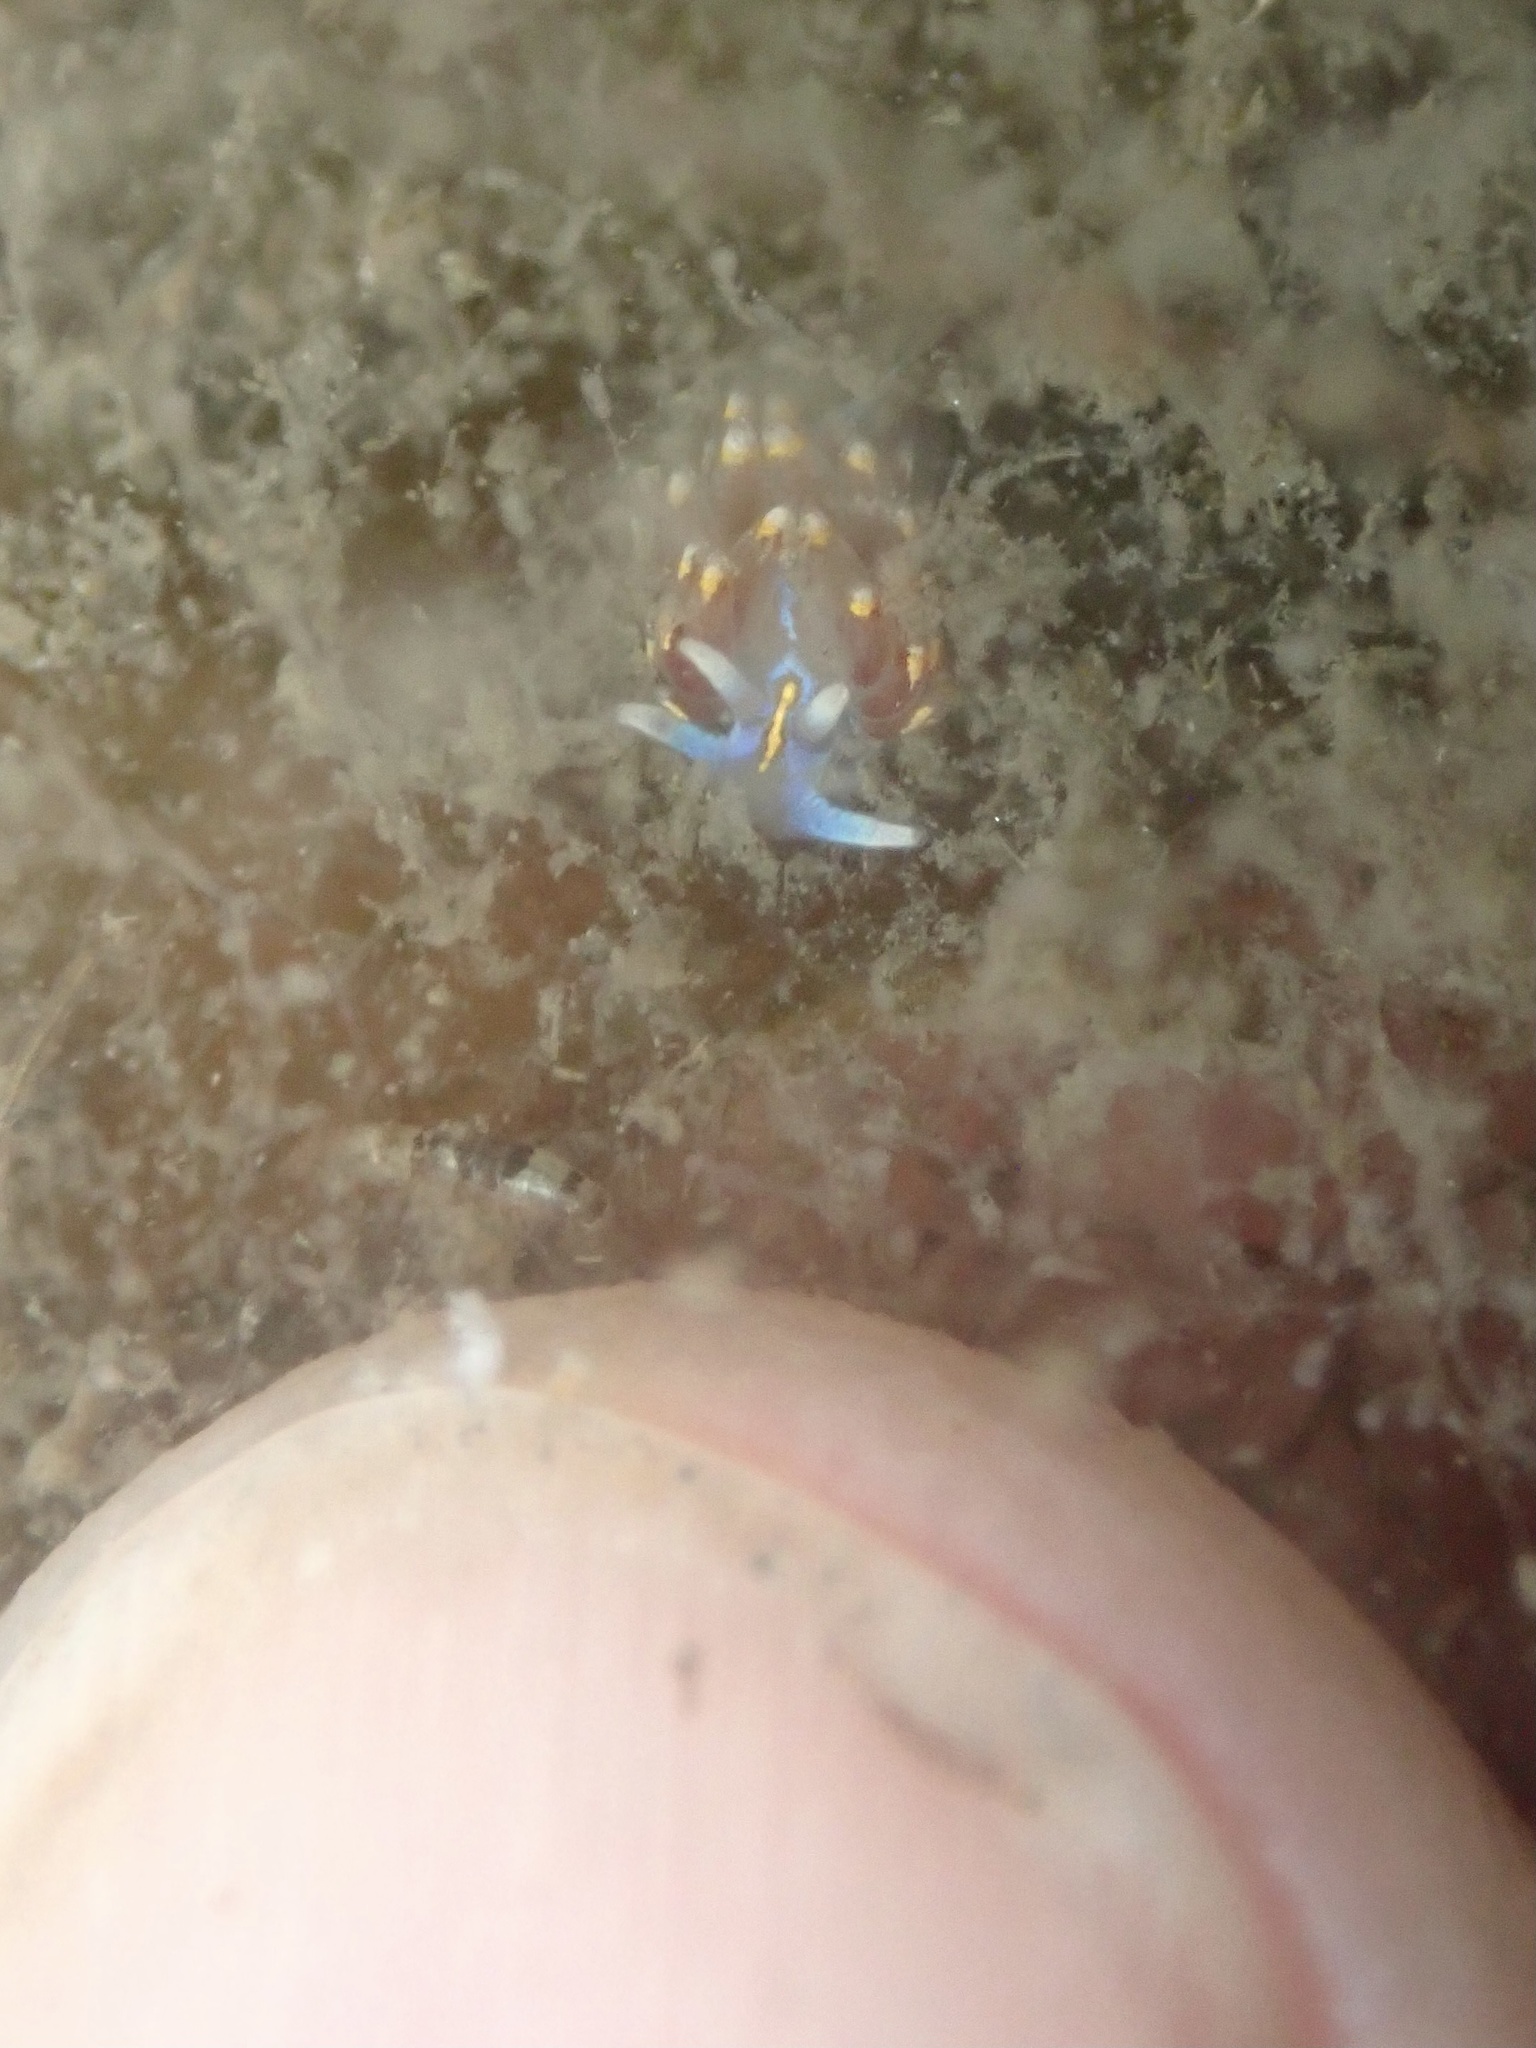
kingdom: Animalia
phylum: Mollusca
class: Gastropoda
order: Nudibranchia
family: Myrrhinidae
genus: Hermissenda
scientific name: Hermissenda opalescens
